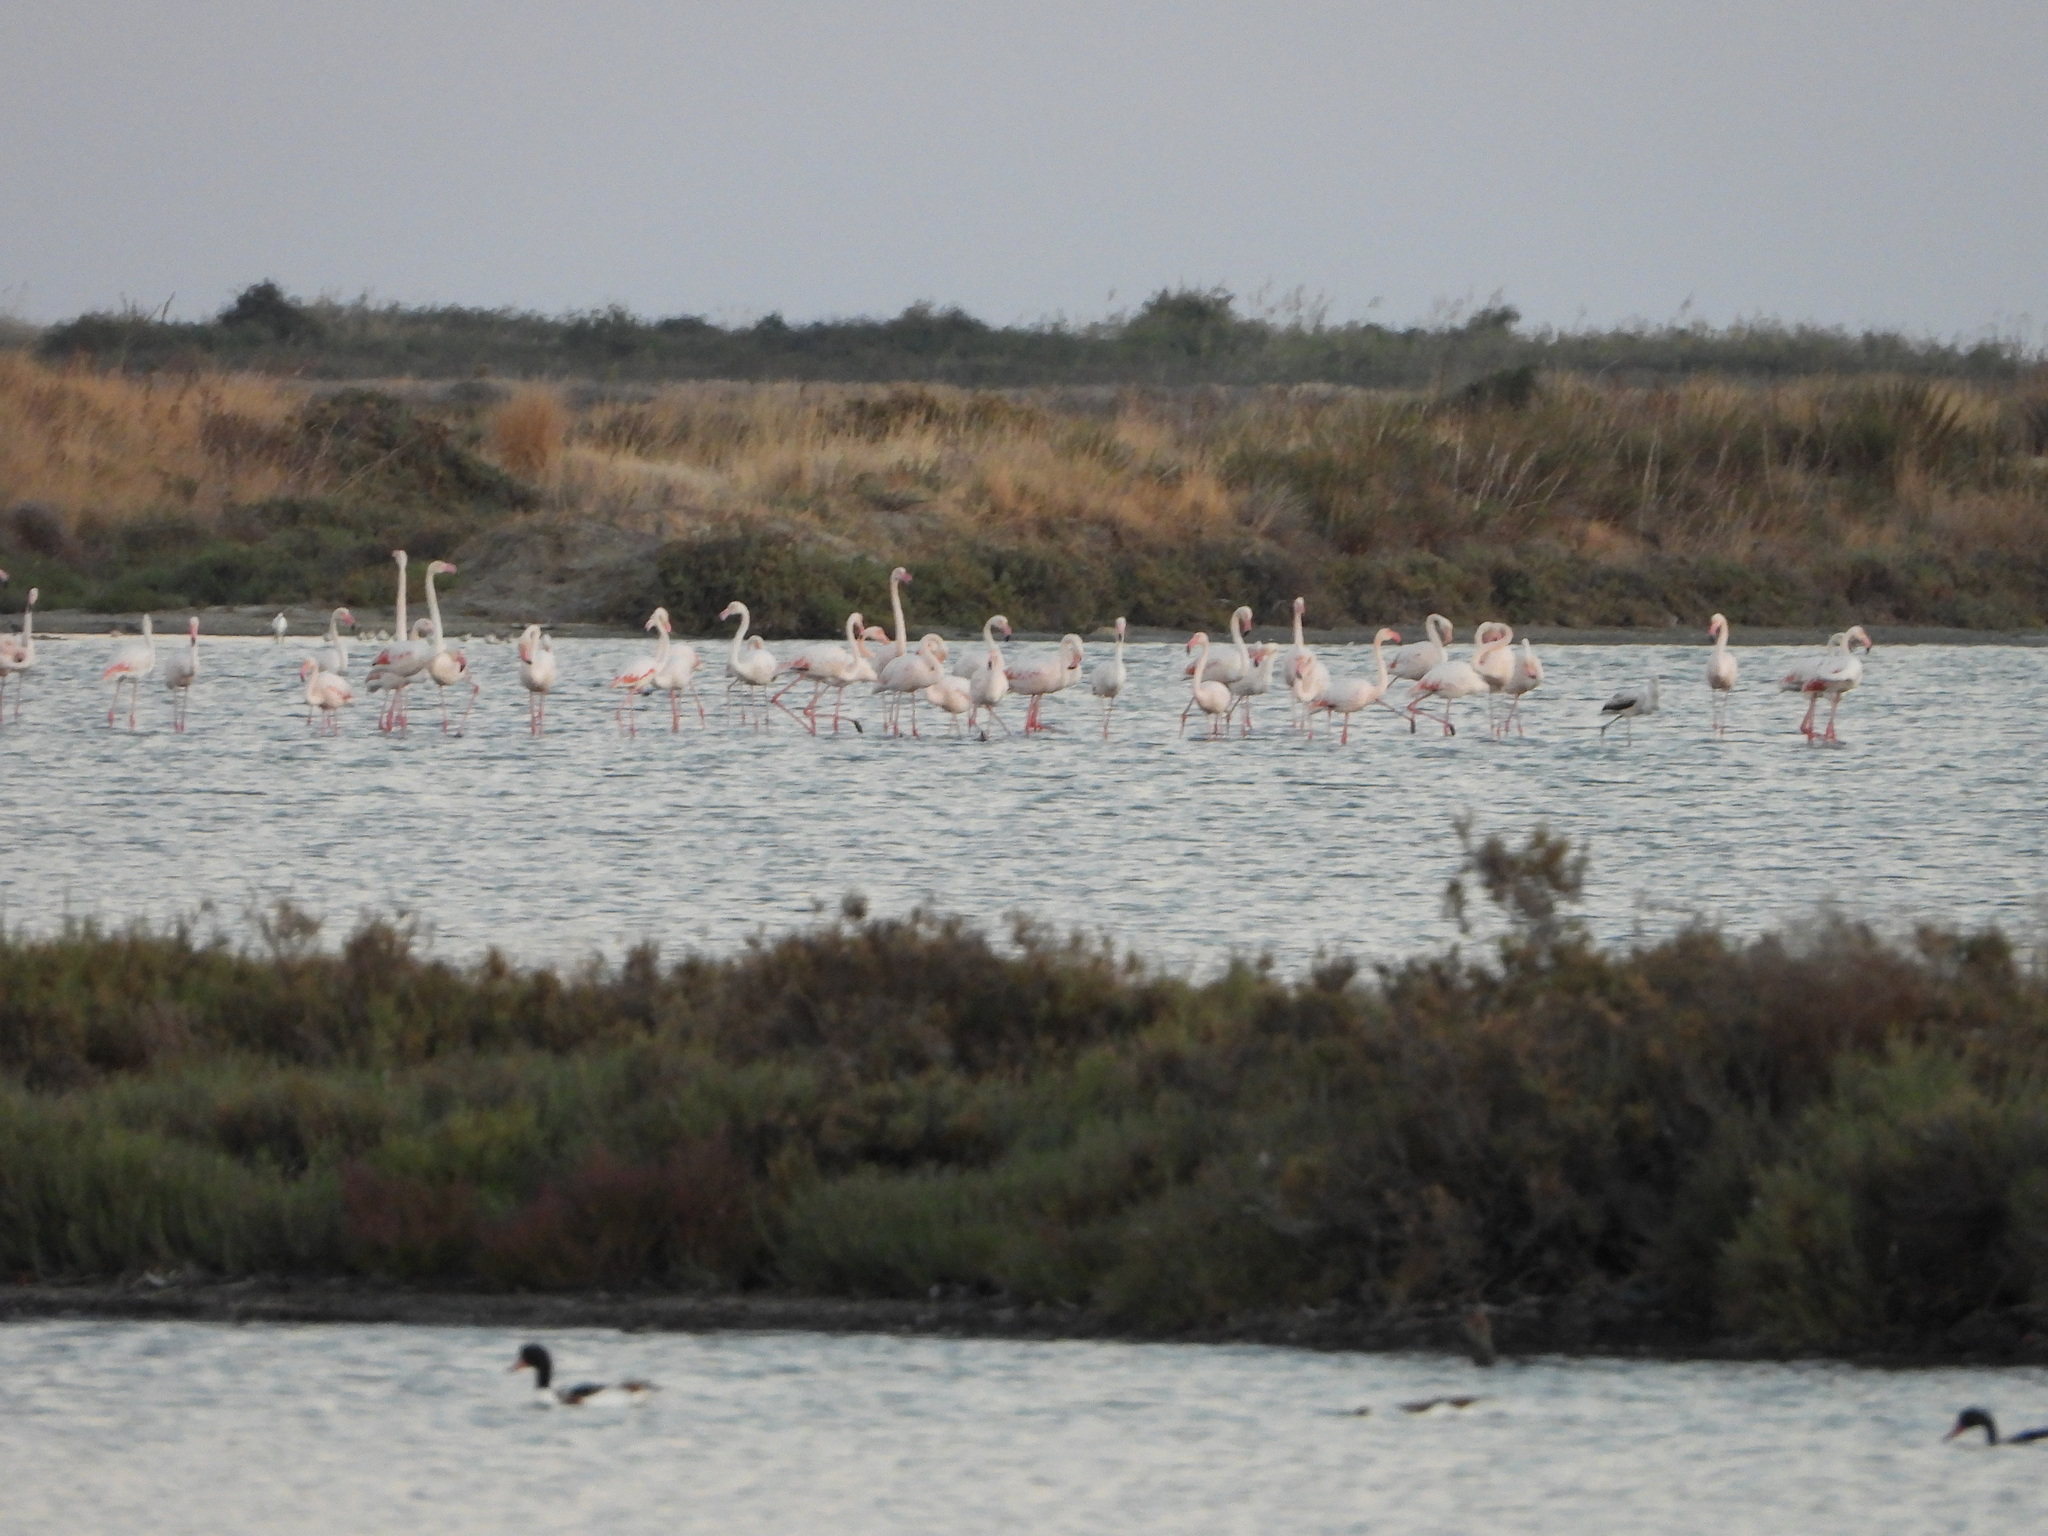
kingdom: Animalia
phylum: Chordata
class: Aves
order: Phoenicopteriformes
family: Phoenicopteridae
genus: Phoenicopterus
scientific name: Phoenicopterus roseus
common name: Greater flamingo
